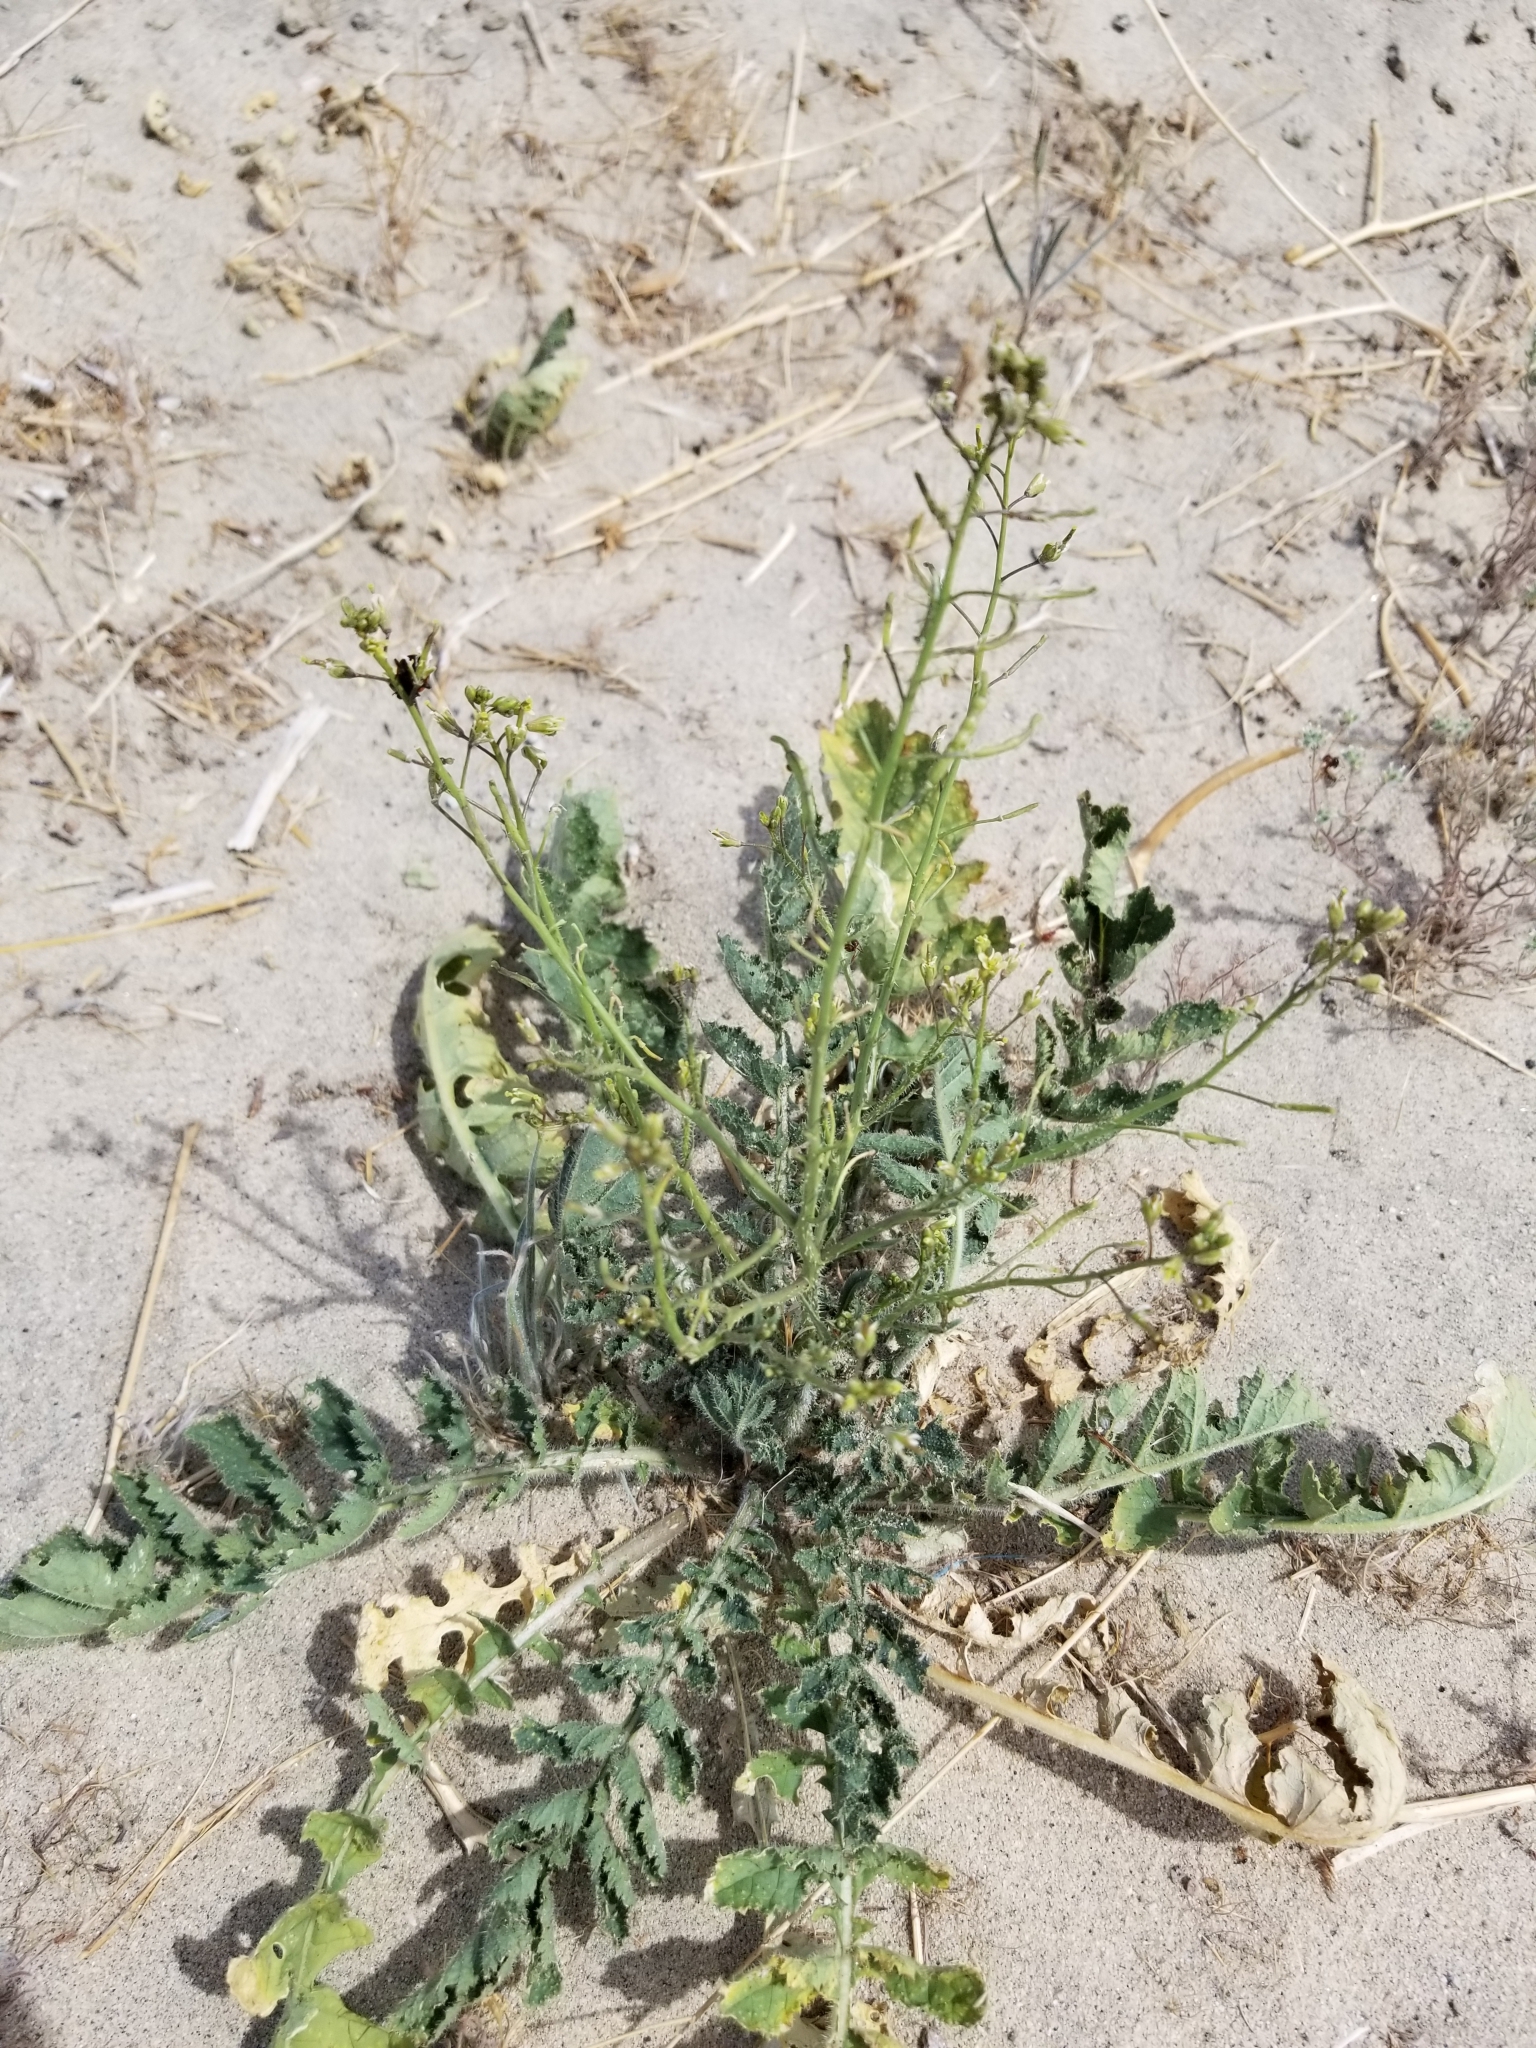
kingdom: Plantae
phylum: Tracheophyta
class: Magnoliopsida
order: Brassicales
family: Brassicaceae
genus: Brassica
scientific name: Brassica tournefortii
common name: Pale cabbage
